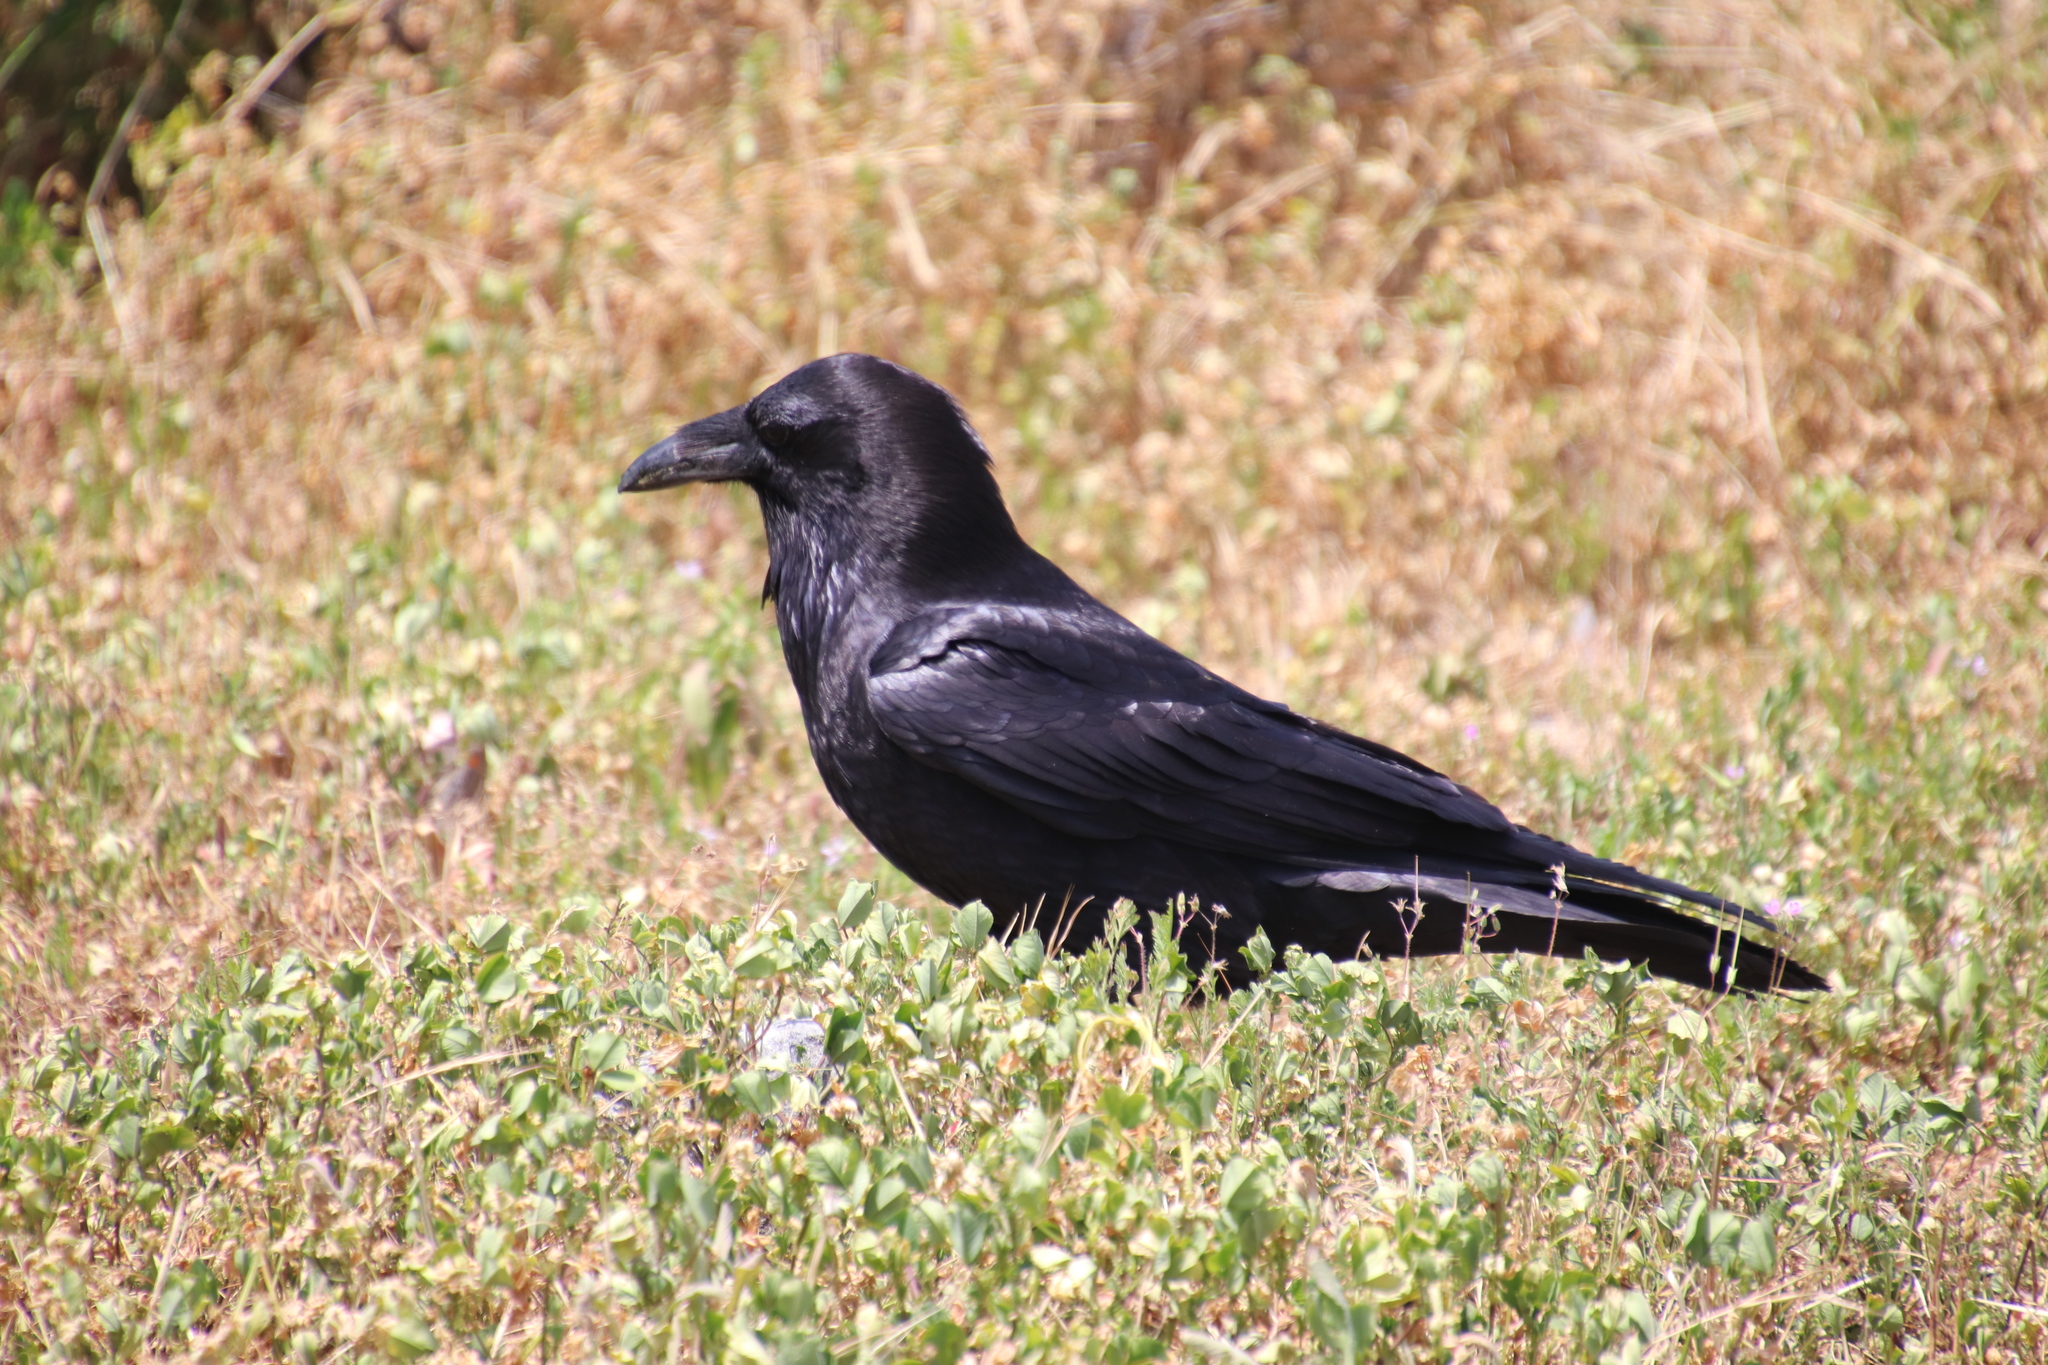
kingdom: Animalia
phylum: Chordata
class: Aves
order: Passeriformes
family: Corvidae
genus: Corvus
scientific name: Corvus corax
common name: Common raven
